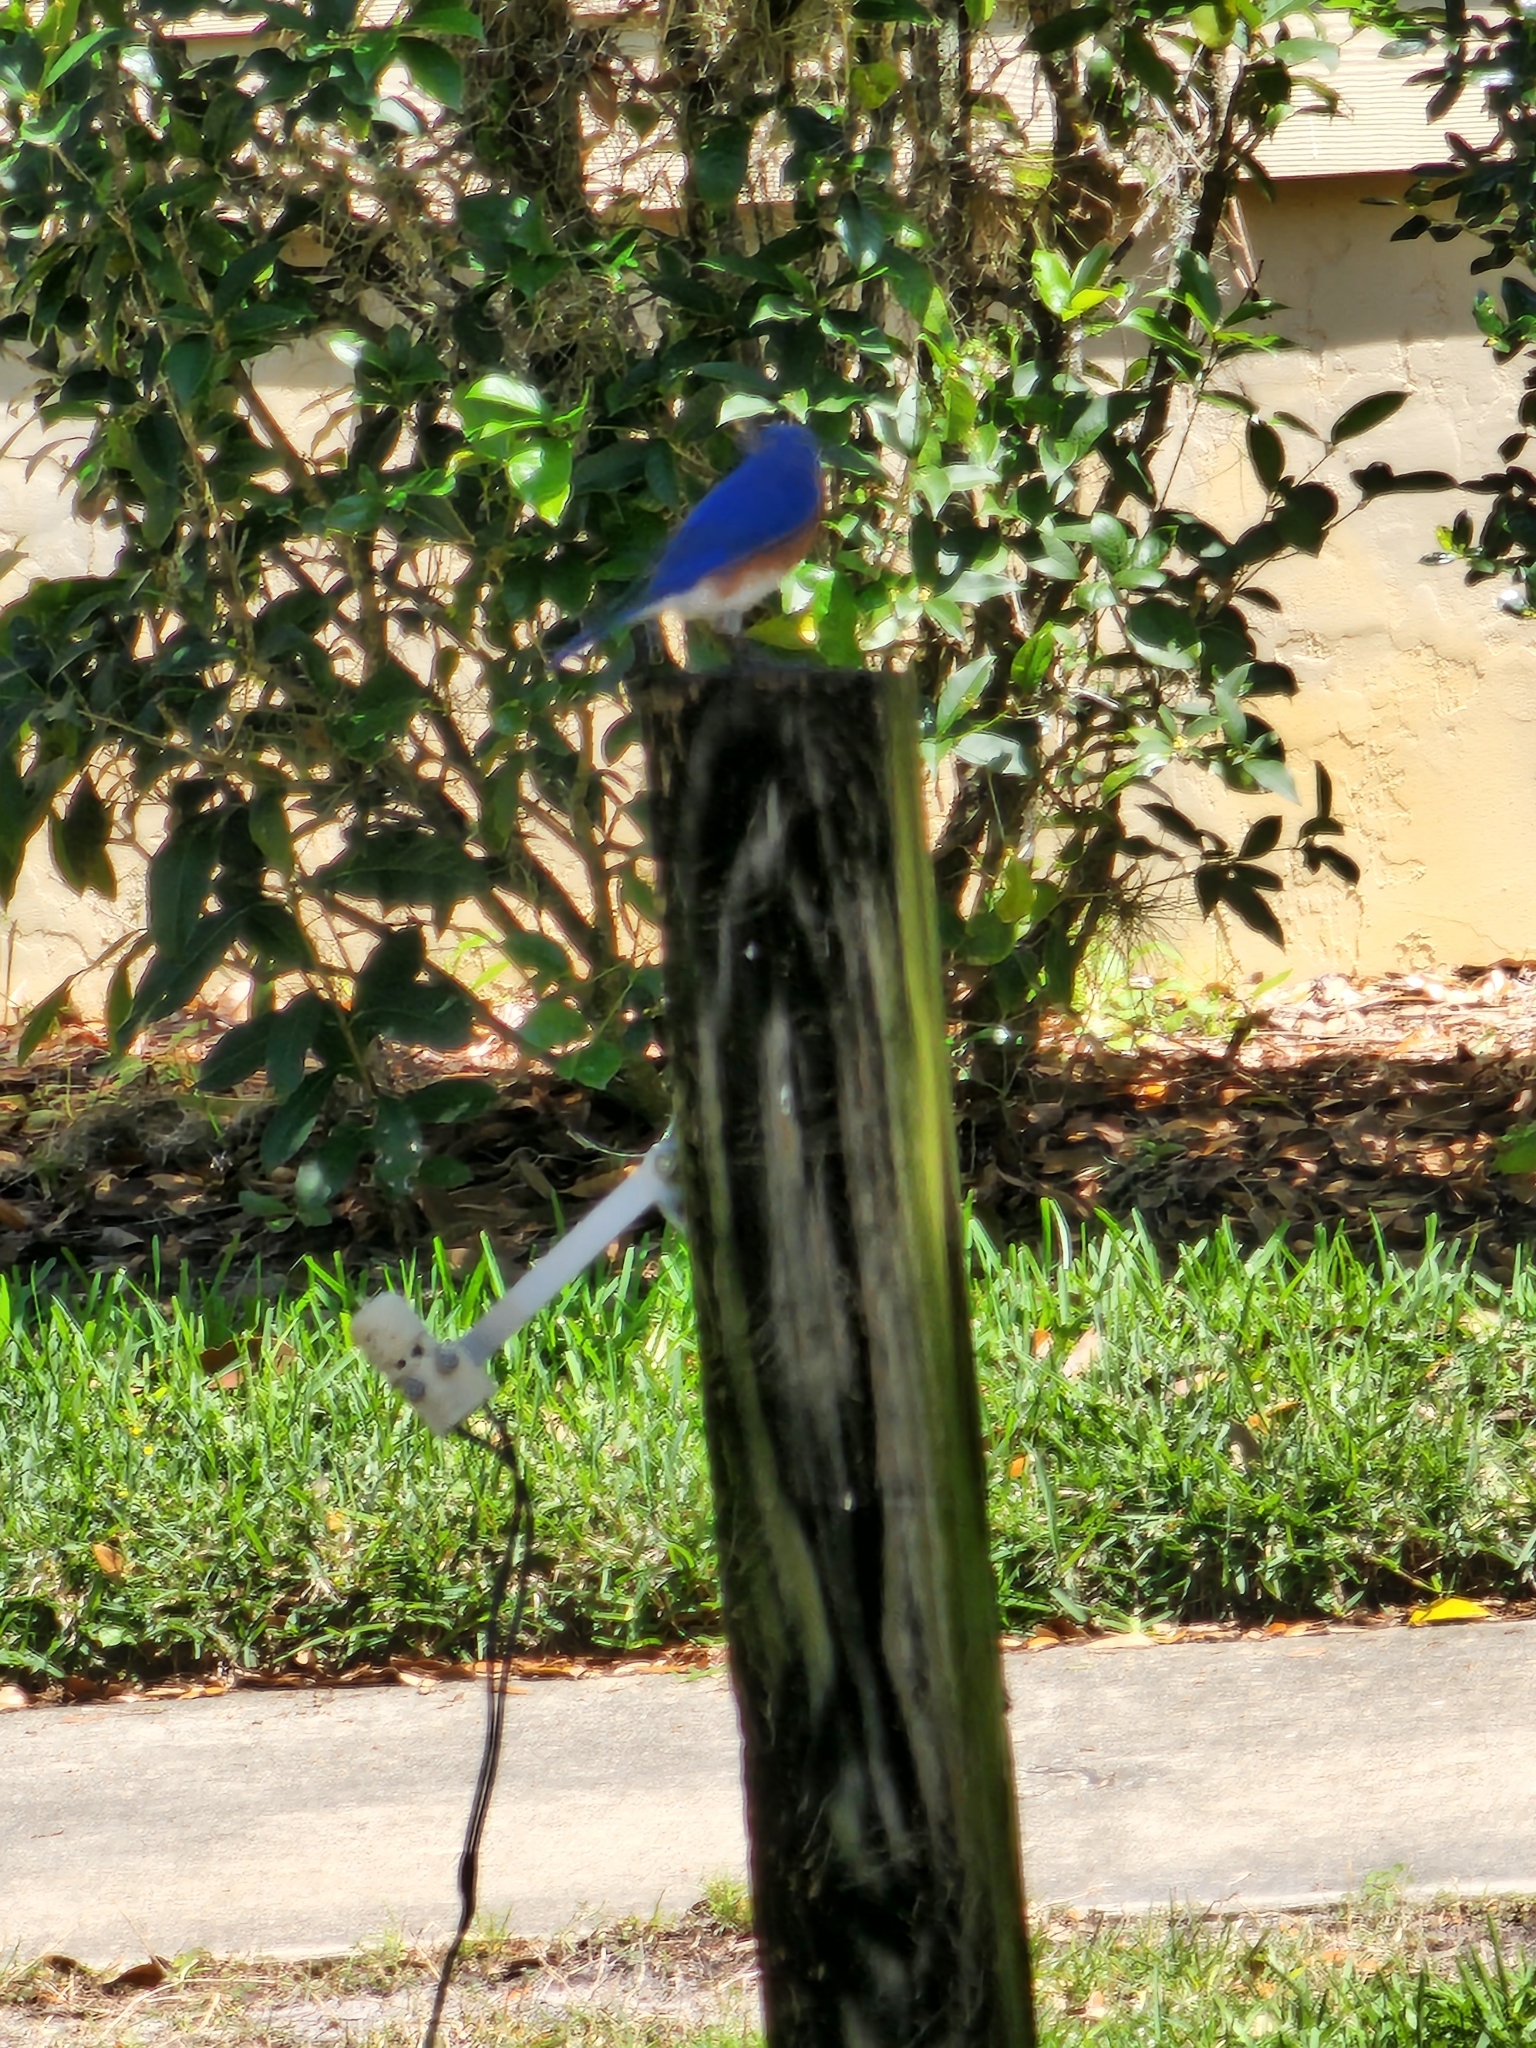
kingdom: Animalia
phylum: Chordata
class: Aves
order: Passeriformes
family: Turdidae
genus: Sialia
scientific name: Sialia sialis
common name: Eastern bluebird
